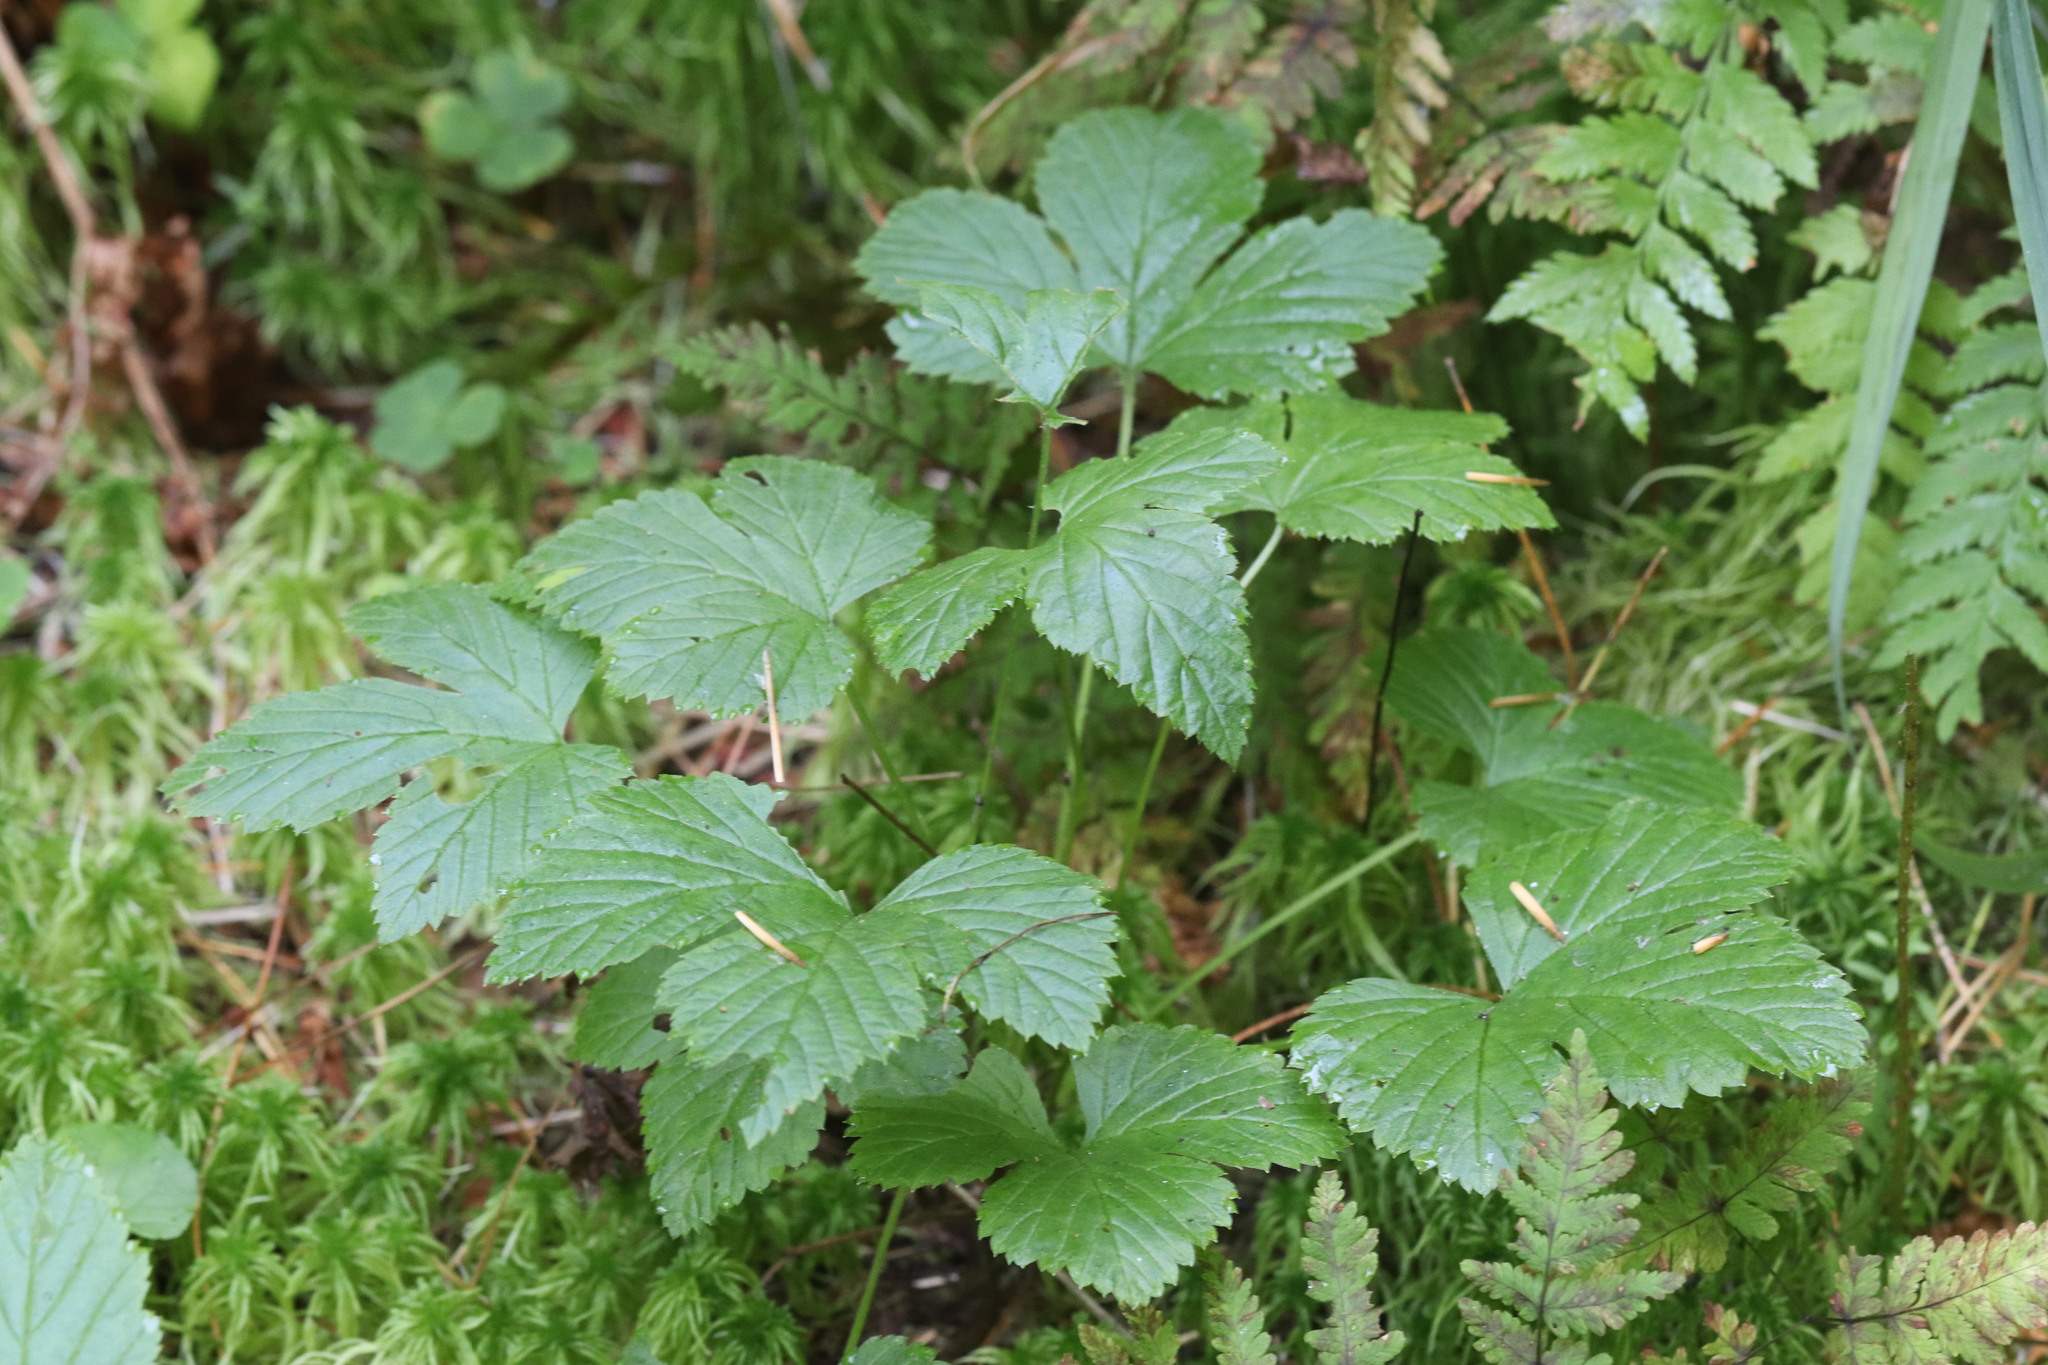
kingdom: Plantae
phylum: Tracheophyta
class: Magnoliopsida
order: Rosales
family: Rosaceae
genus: Rubus
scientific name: Rubus humulifolius
